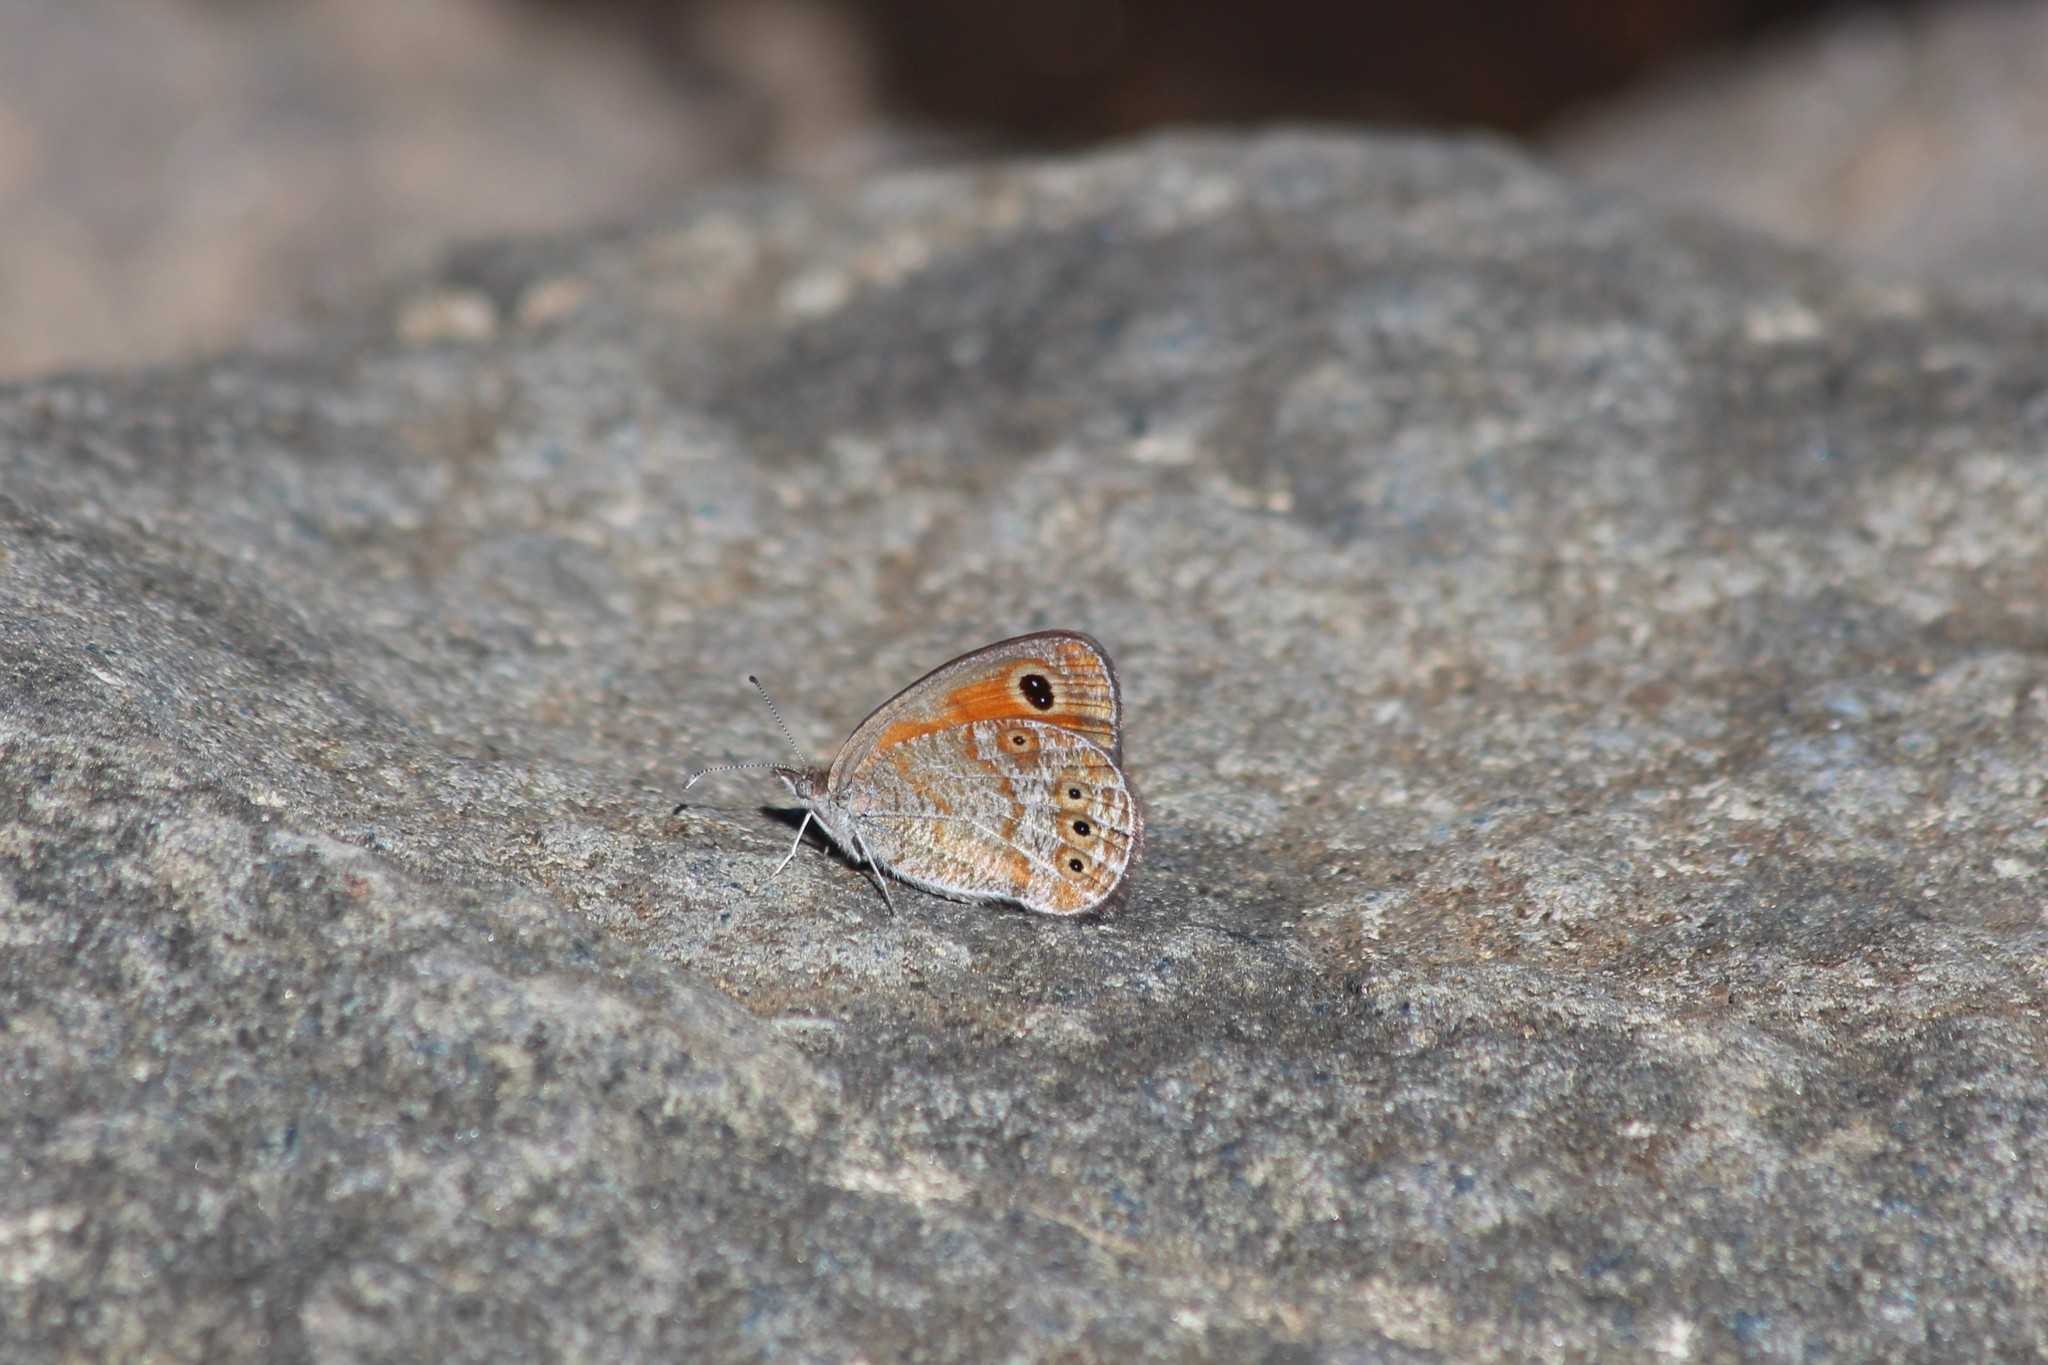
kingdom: Animalia
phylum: Arthropoda
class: Insecta
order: Lepidoptera
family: Nymphalidae
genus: Pseudonympha
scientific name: Pseudonympha varii
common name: Vari's brown
